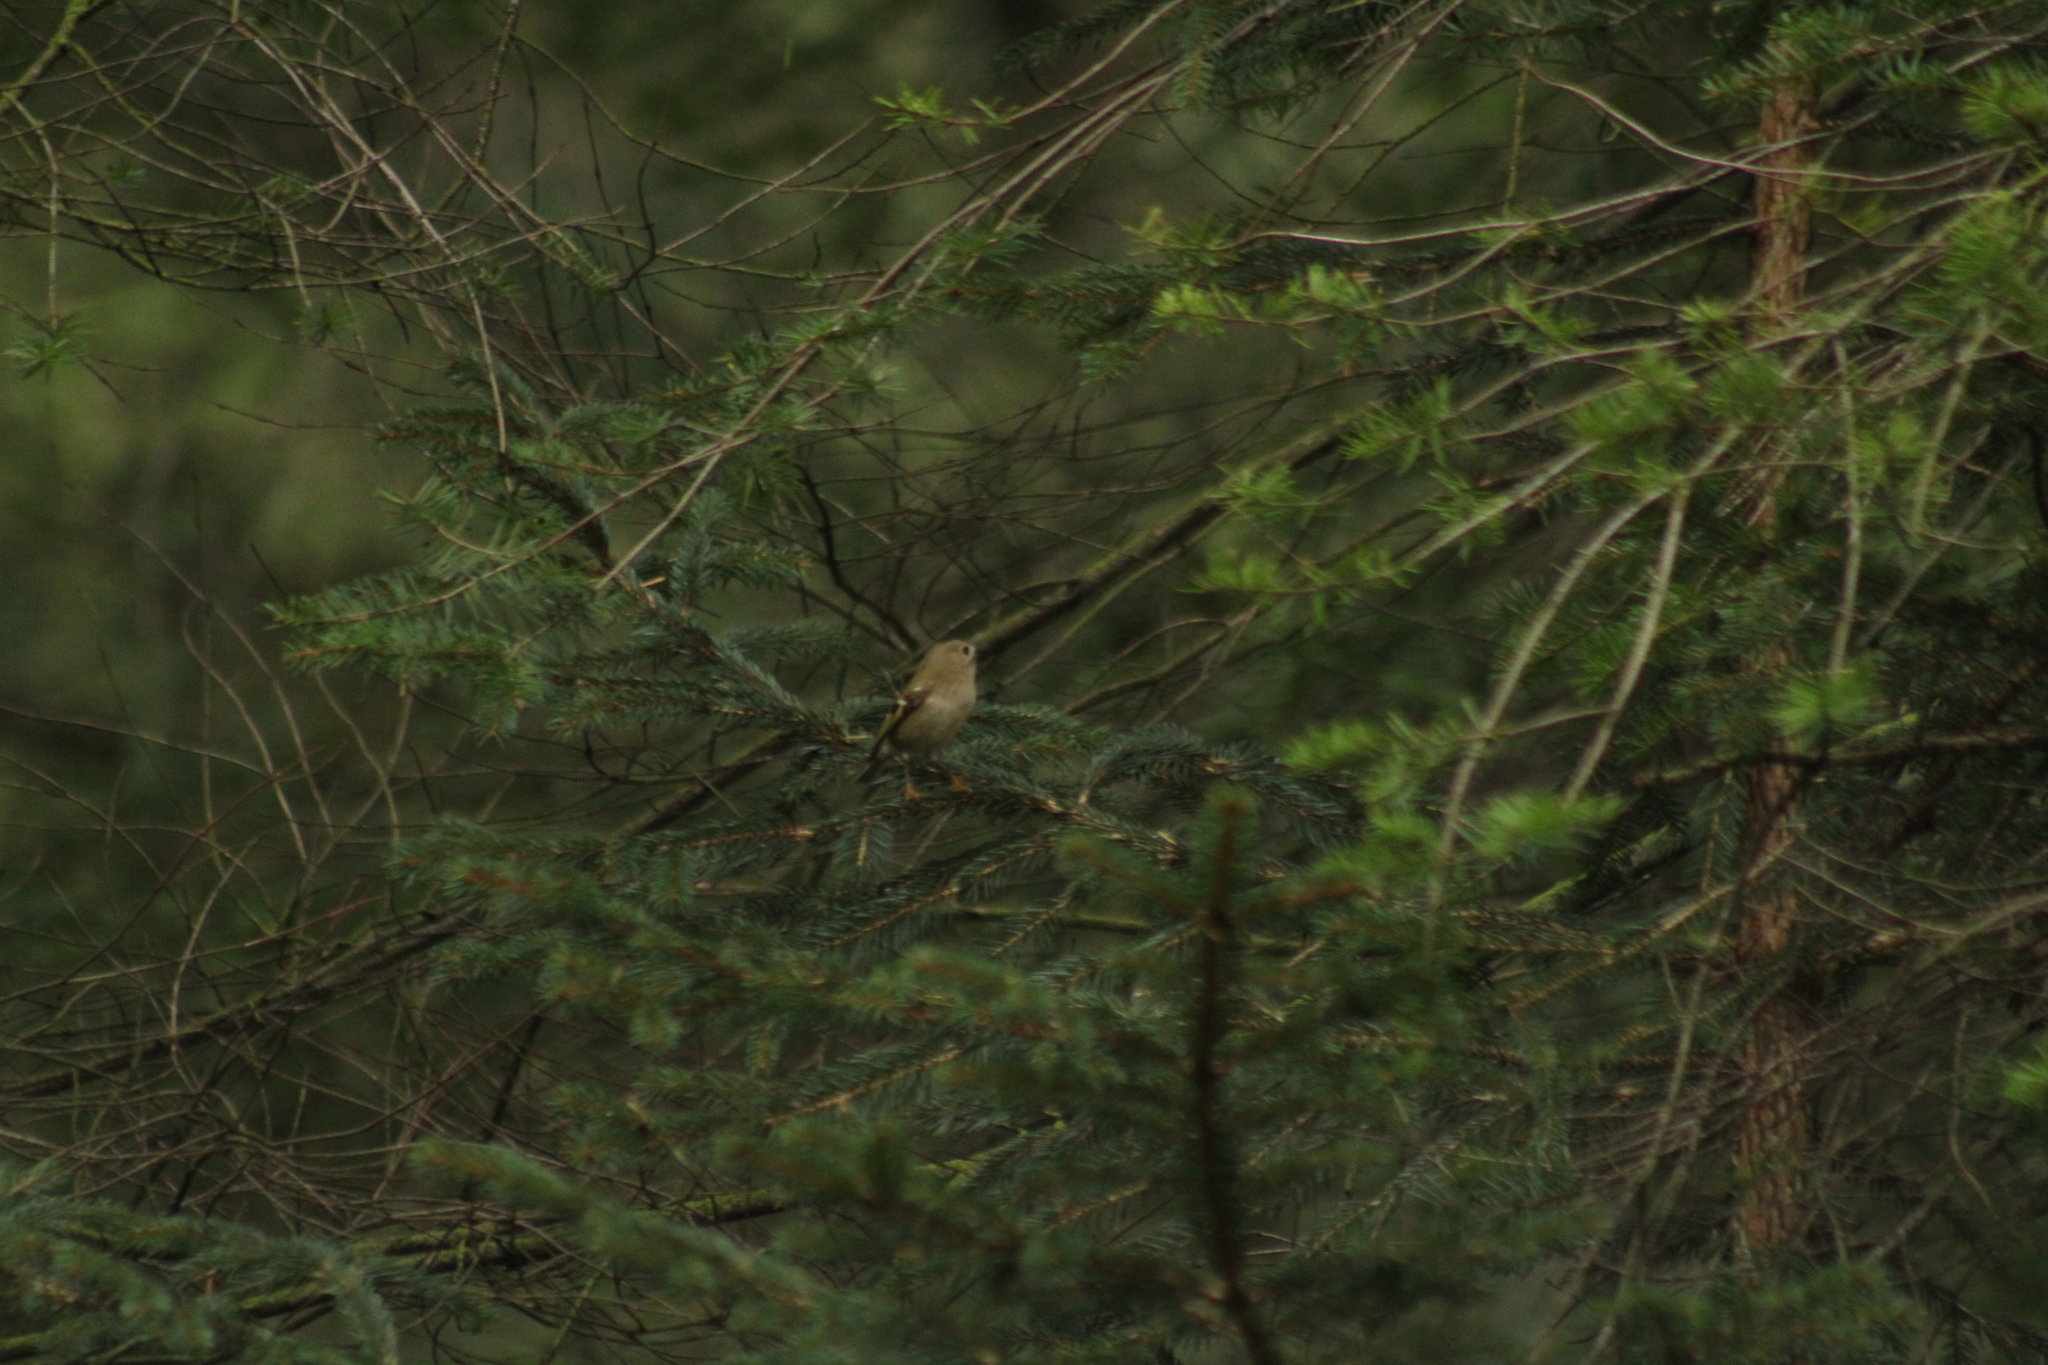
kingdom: Animalia
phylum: Chordata
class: Aves
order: Passeriformes
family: Regulidae
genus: Regulus
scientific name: Regulus regulus
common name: Goldcrest
